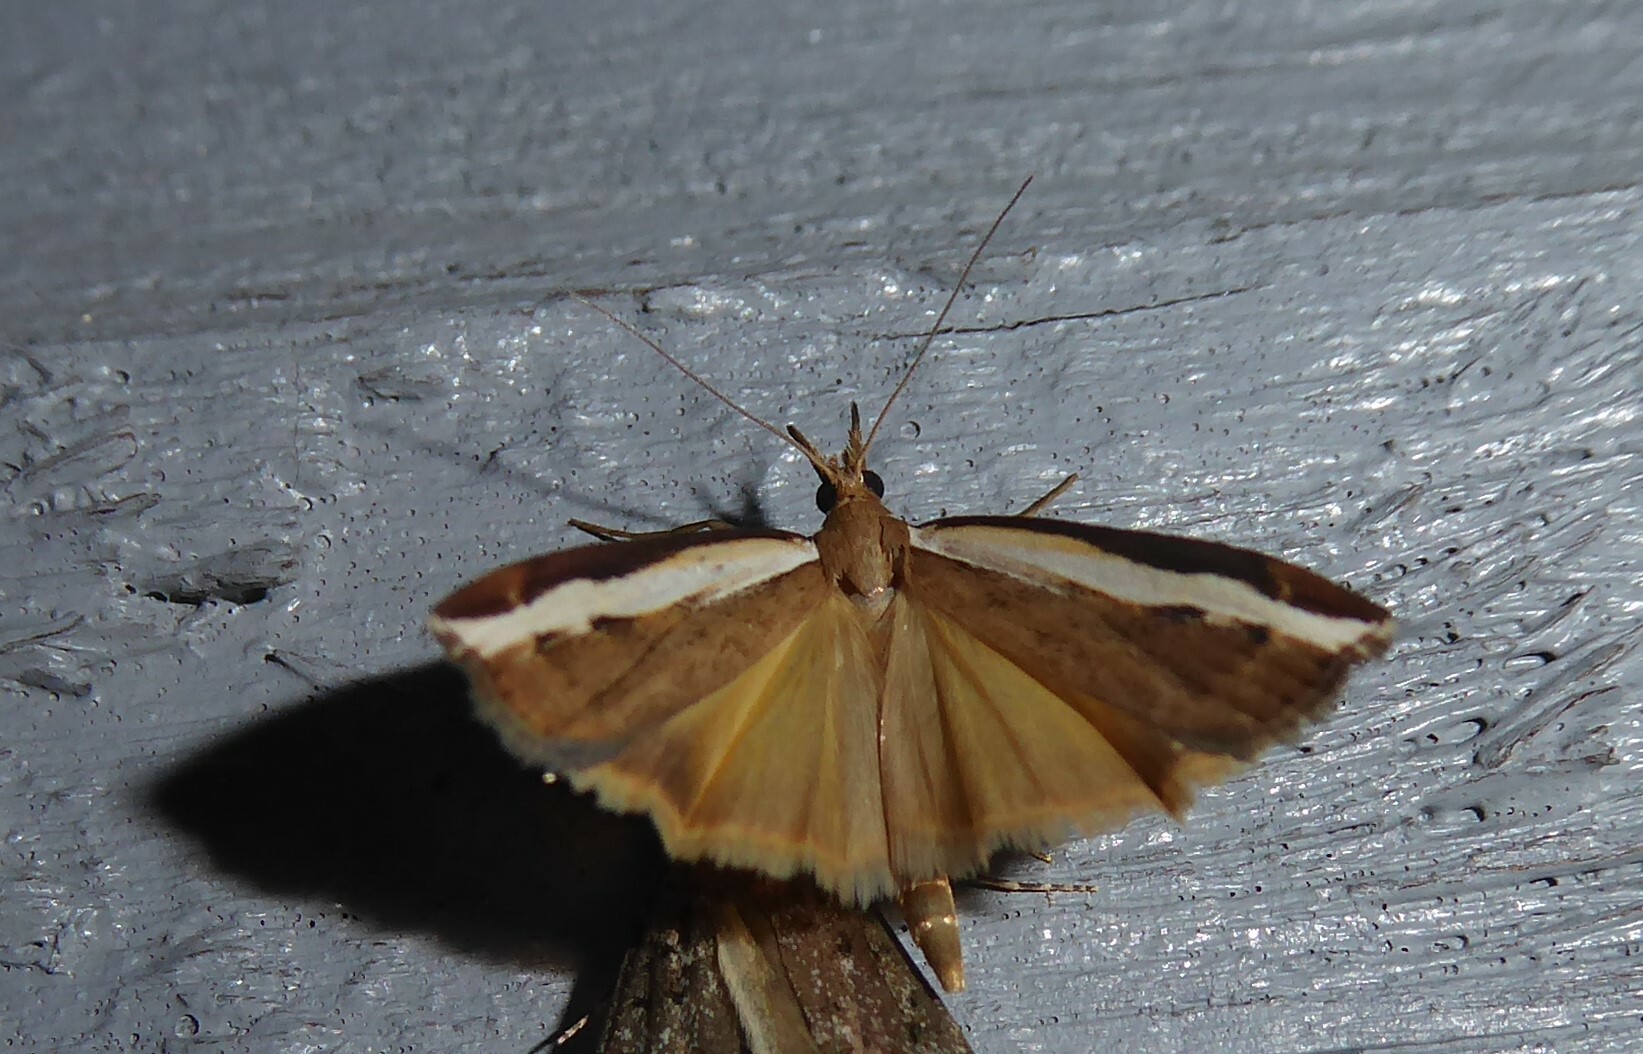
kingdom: Animalia
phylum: Arthropoda
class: Insecta
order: Lepidoptera
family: Crambidae
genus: Orocrambus
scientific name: Orocrambus flexuosellus
